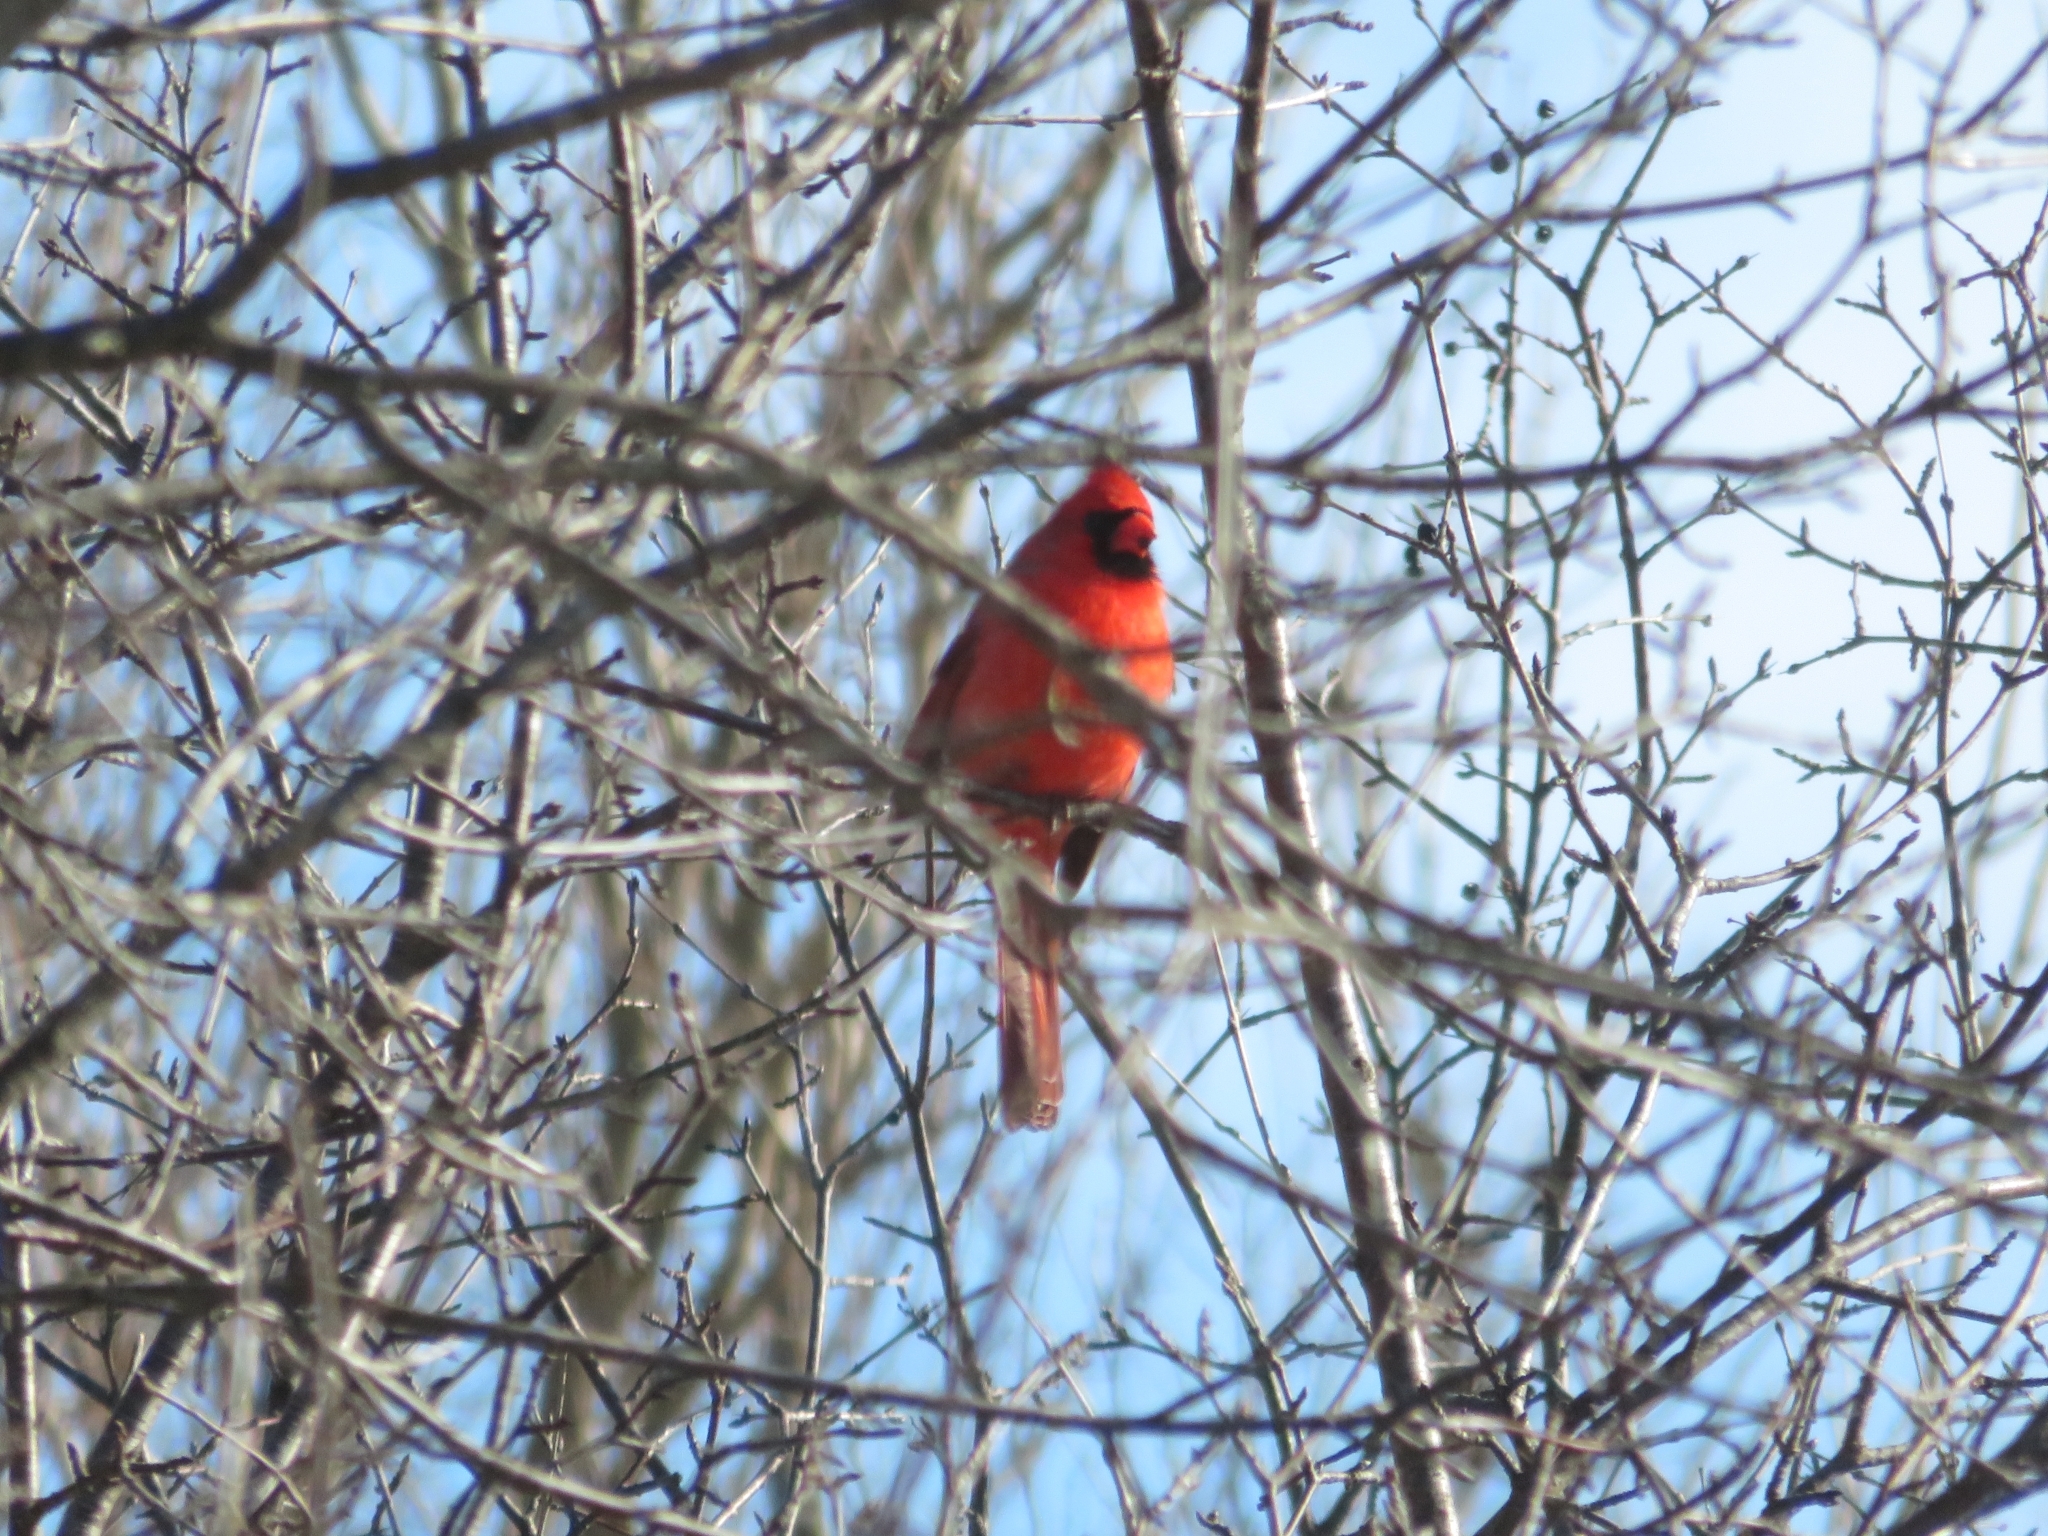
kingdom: Animalia
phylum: Chordata
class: Aves
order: Passeriformes
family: Cardinalidae
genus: Cardinalis
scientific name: Cardinalis cardinalis
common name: Northern cardinal
